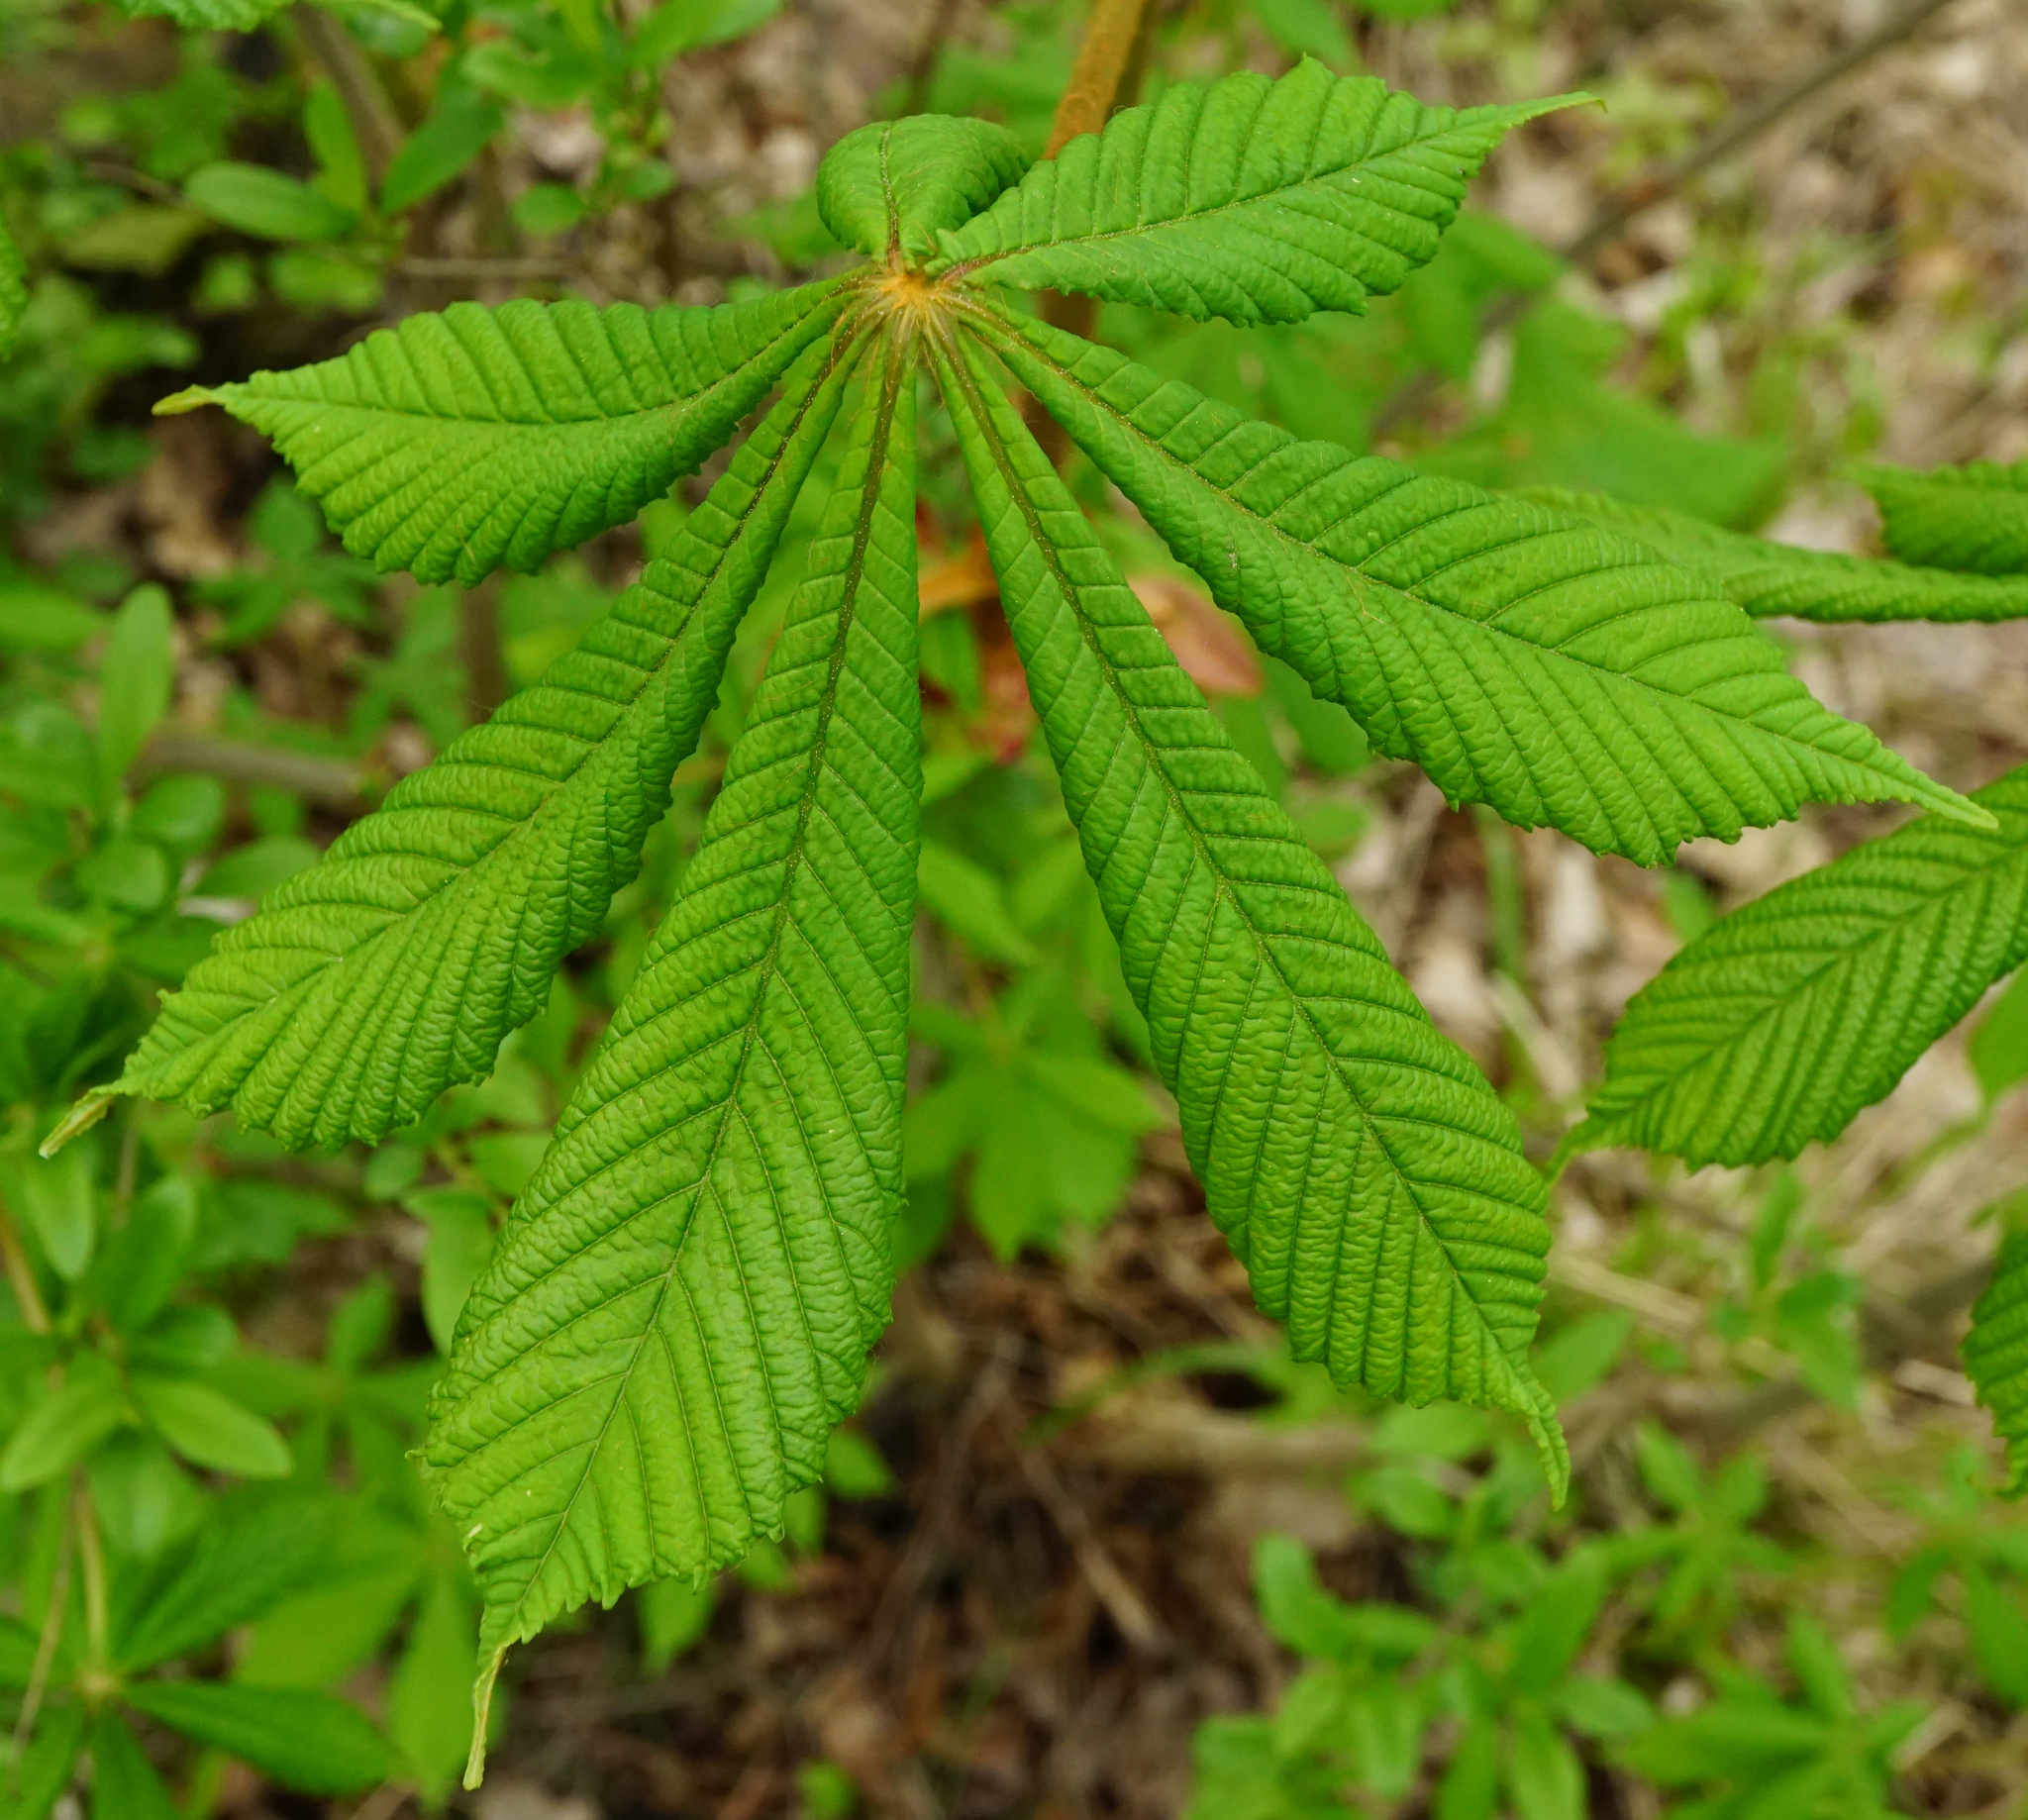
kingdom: Plantae
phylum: Tracheophyta
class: Magnoliopsida
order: Sapindales
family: Sapindaceae
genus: Aesculus
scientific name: Aesculus hippocastanum
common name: Horse-chestnut
